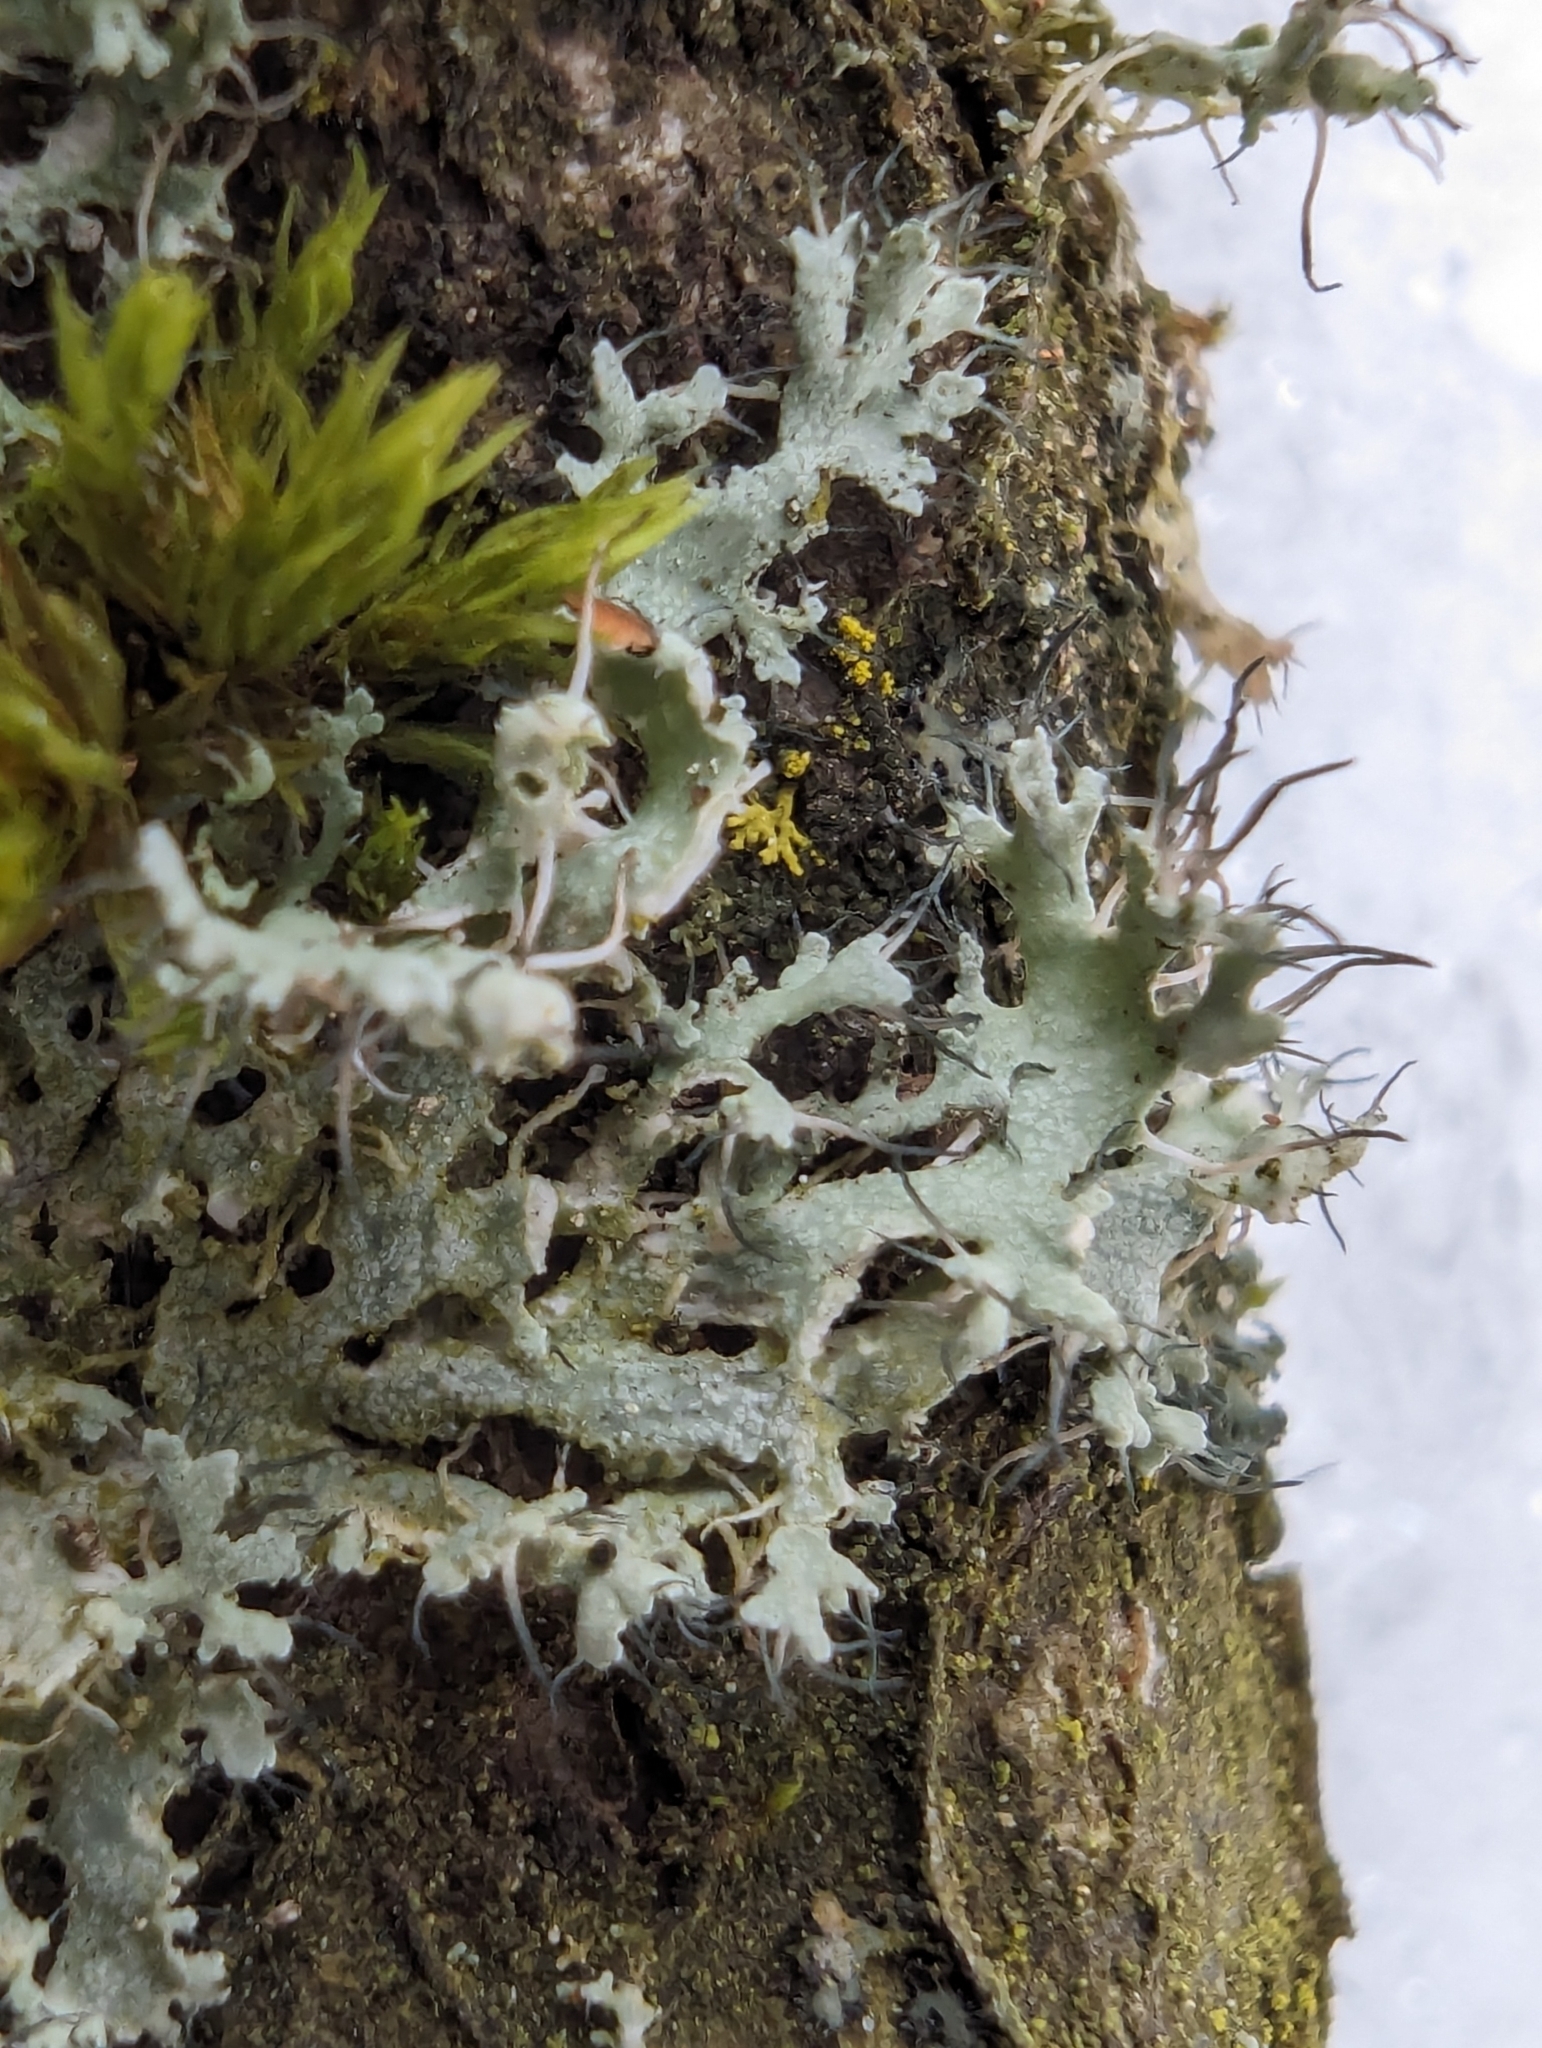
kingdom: Fungi
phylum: Ascomycota
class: Lecanoromycetes
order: Caliciales
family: Physciaceae
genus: Physcia
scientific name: Physcia adscendens
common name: Hooded rosette lichen
